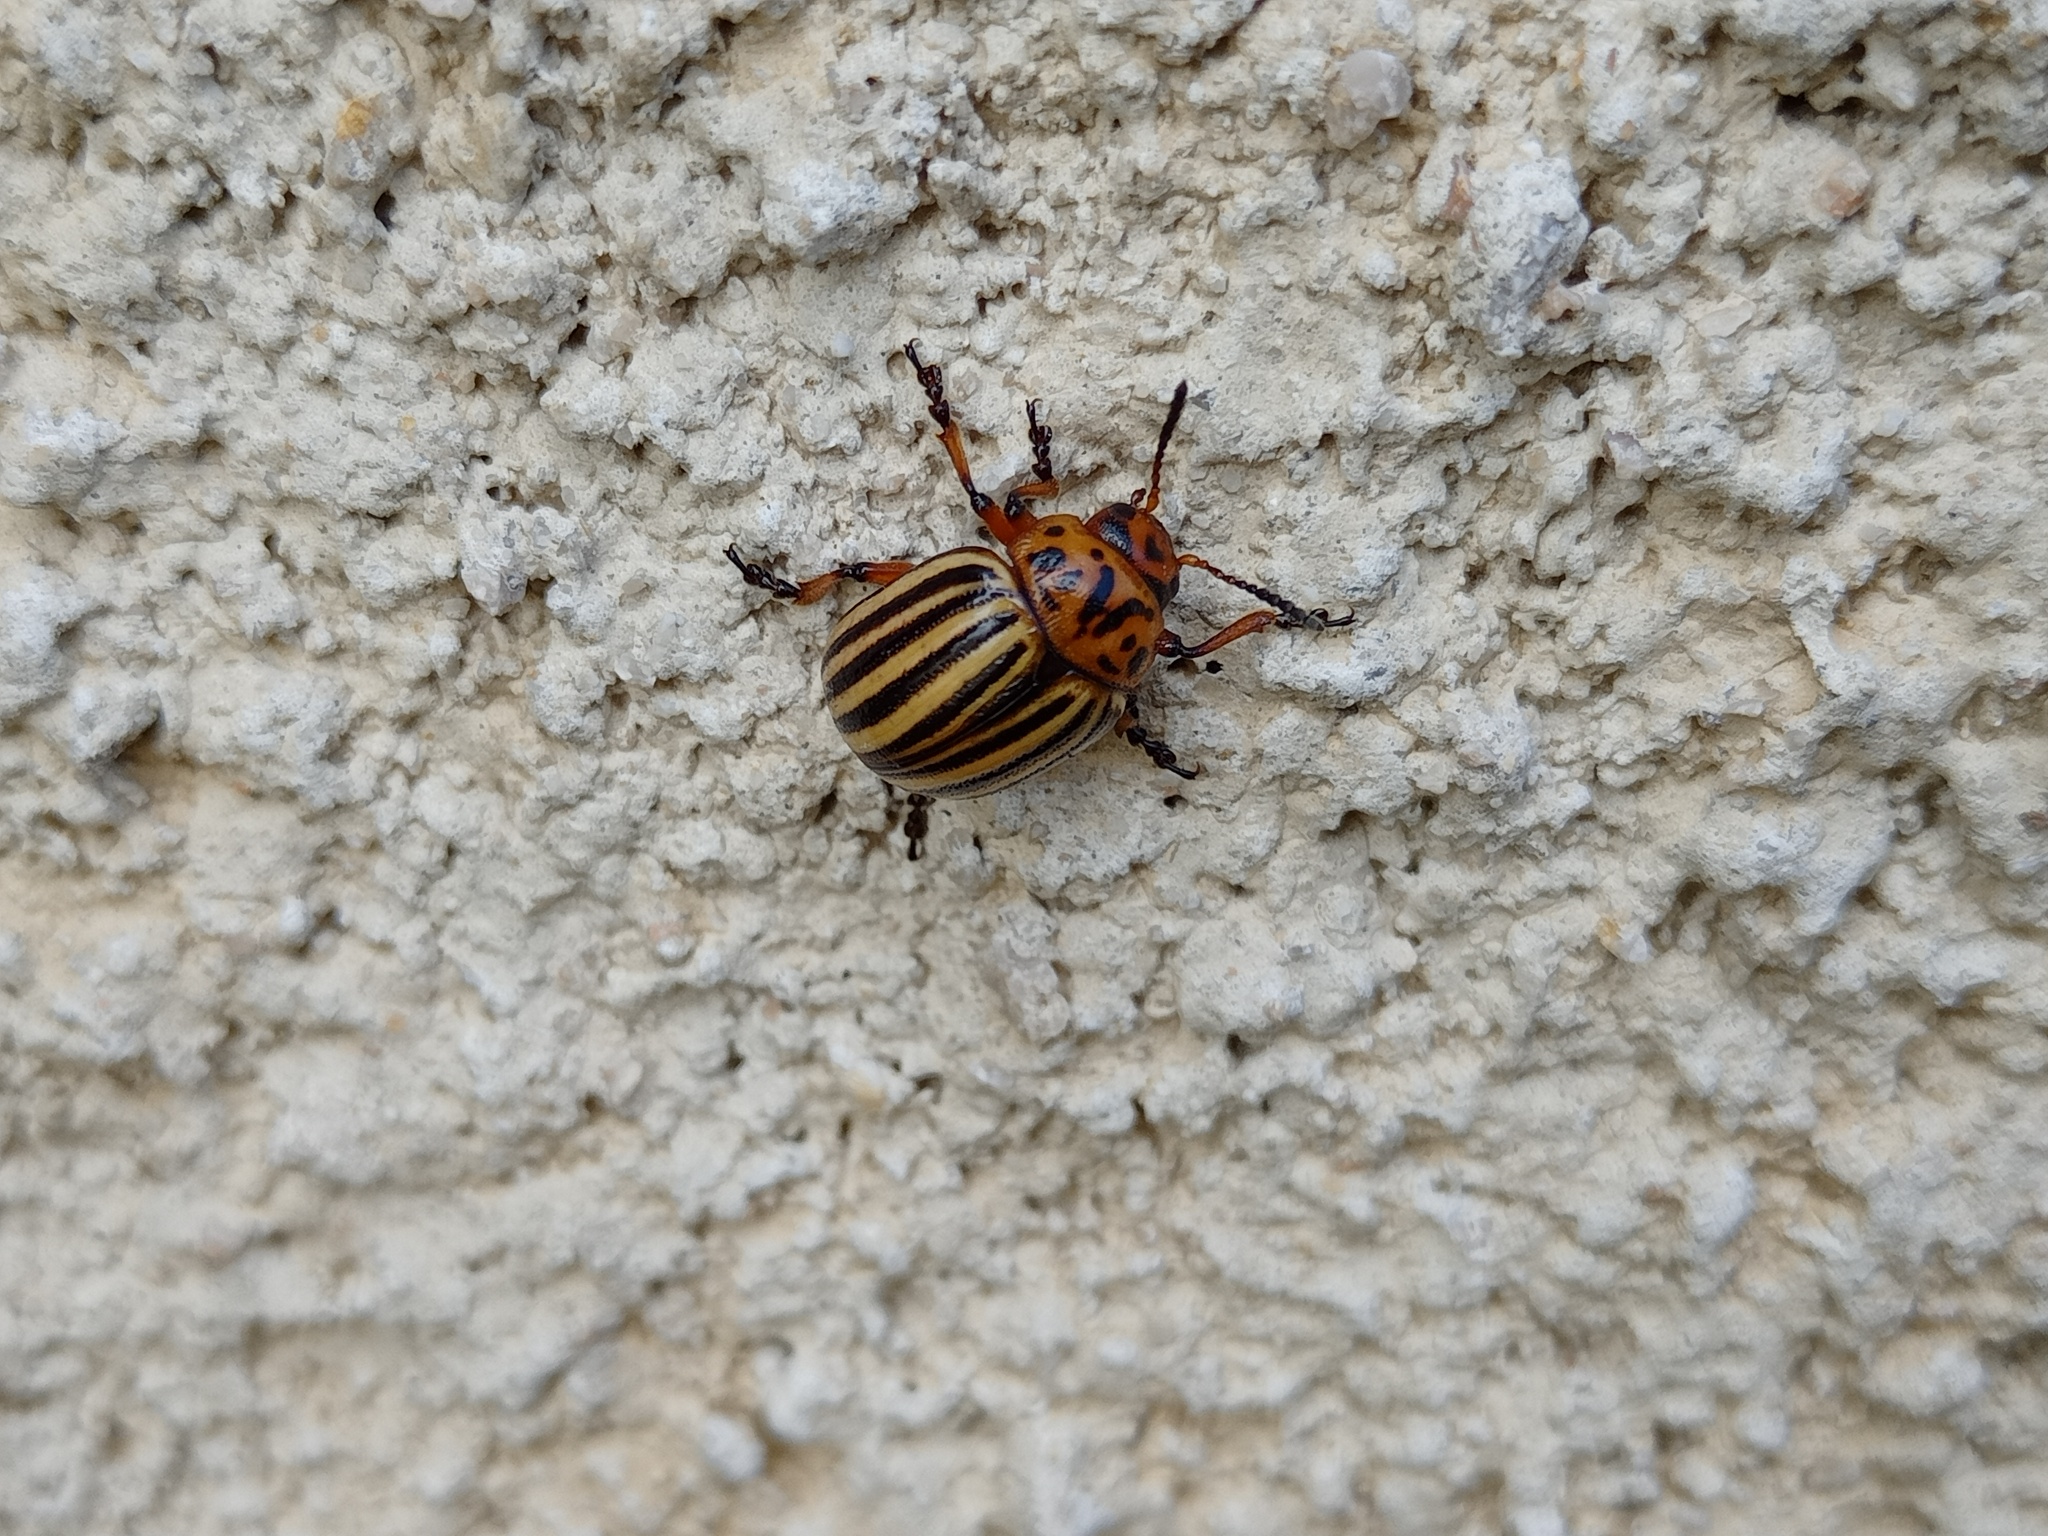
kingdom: Animalia
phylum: Arthropoda
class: Insecta
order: Coleoptera
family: Chrysomelidae
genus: Leptinotarsa
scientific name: Leptinotarsa decemlineata
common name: Colorado potato beetle
